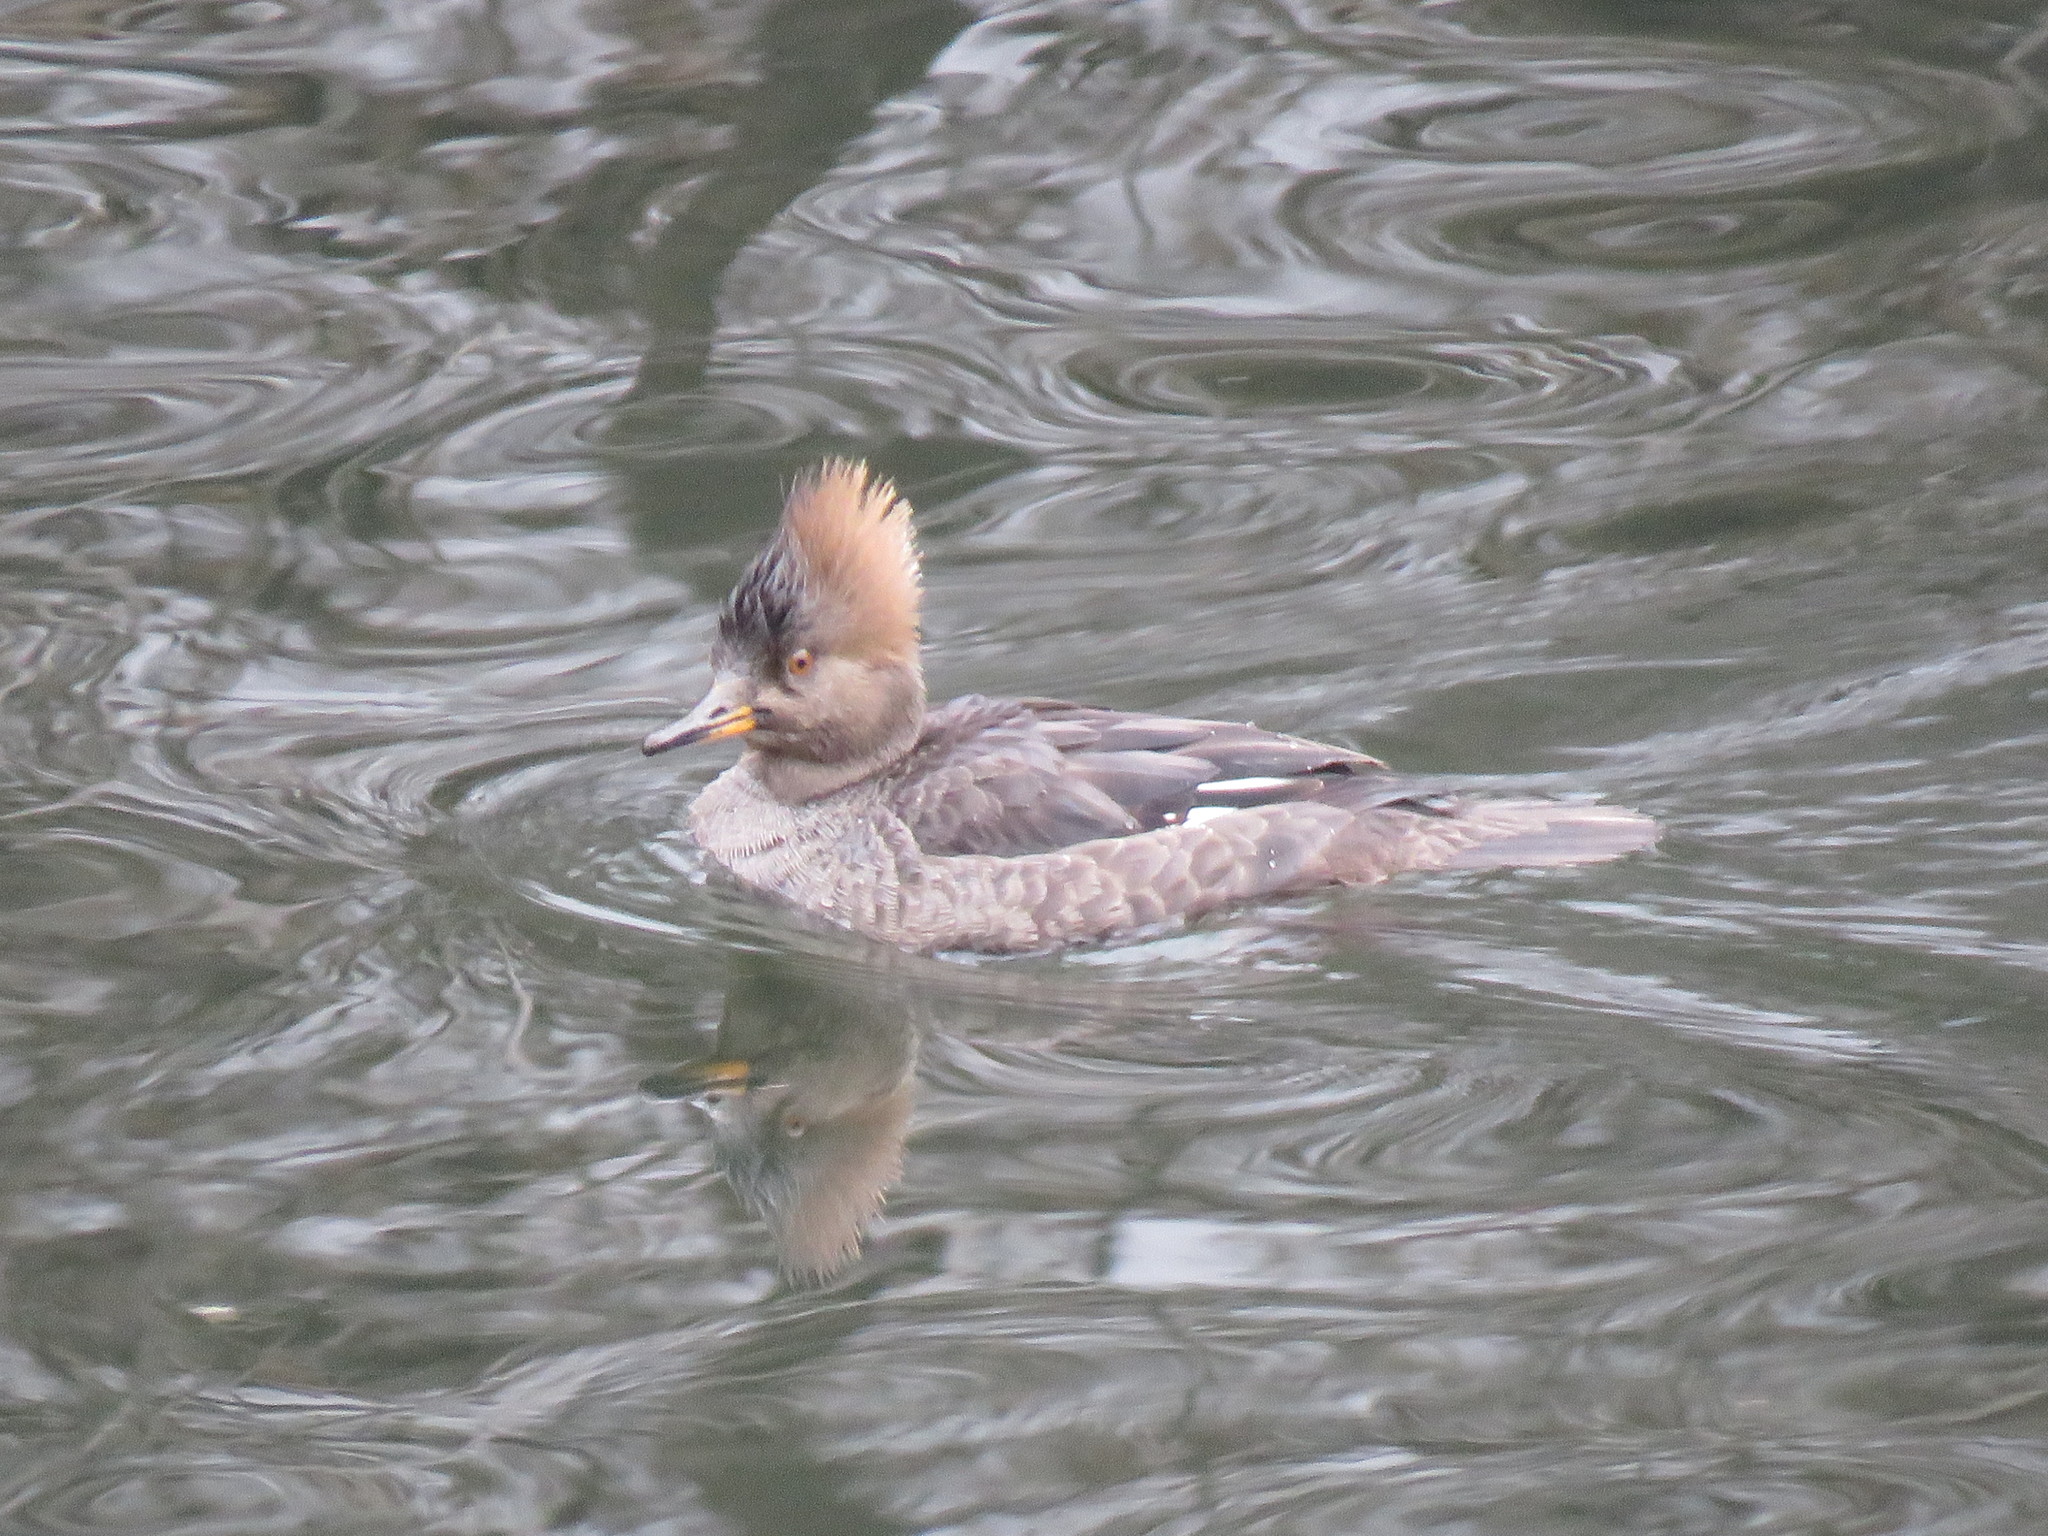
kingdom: Animalia
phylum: Chordata
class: Aves
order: Anseriformes
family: Anatidae
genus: Lophodytes
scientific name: Lophodytes cucullatus
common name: Hooded merganser
